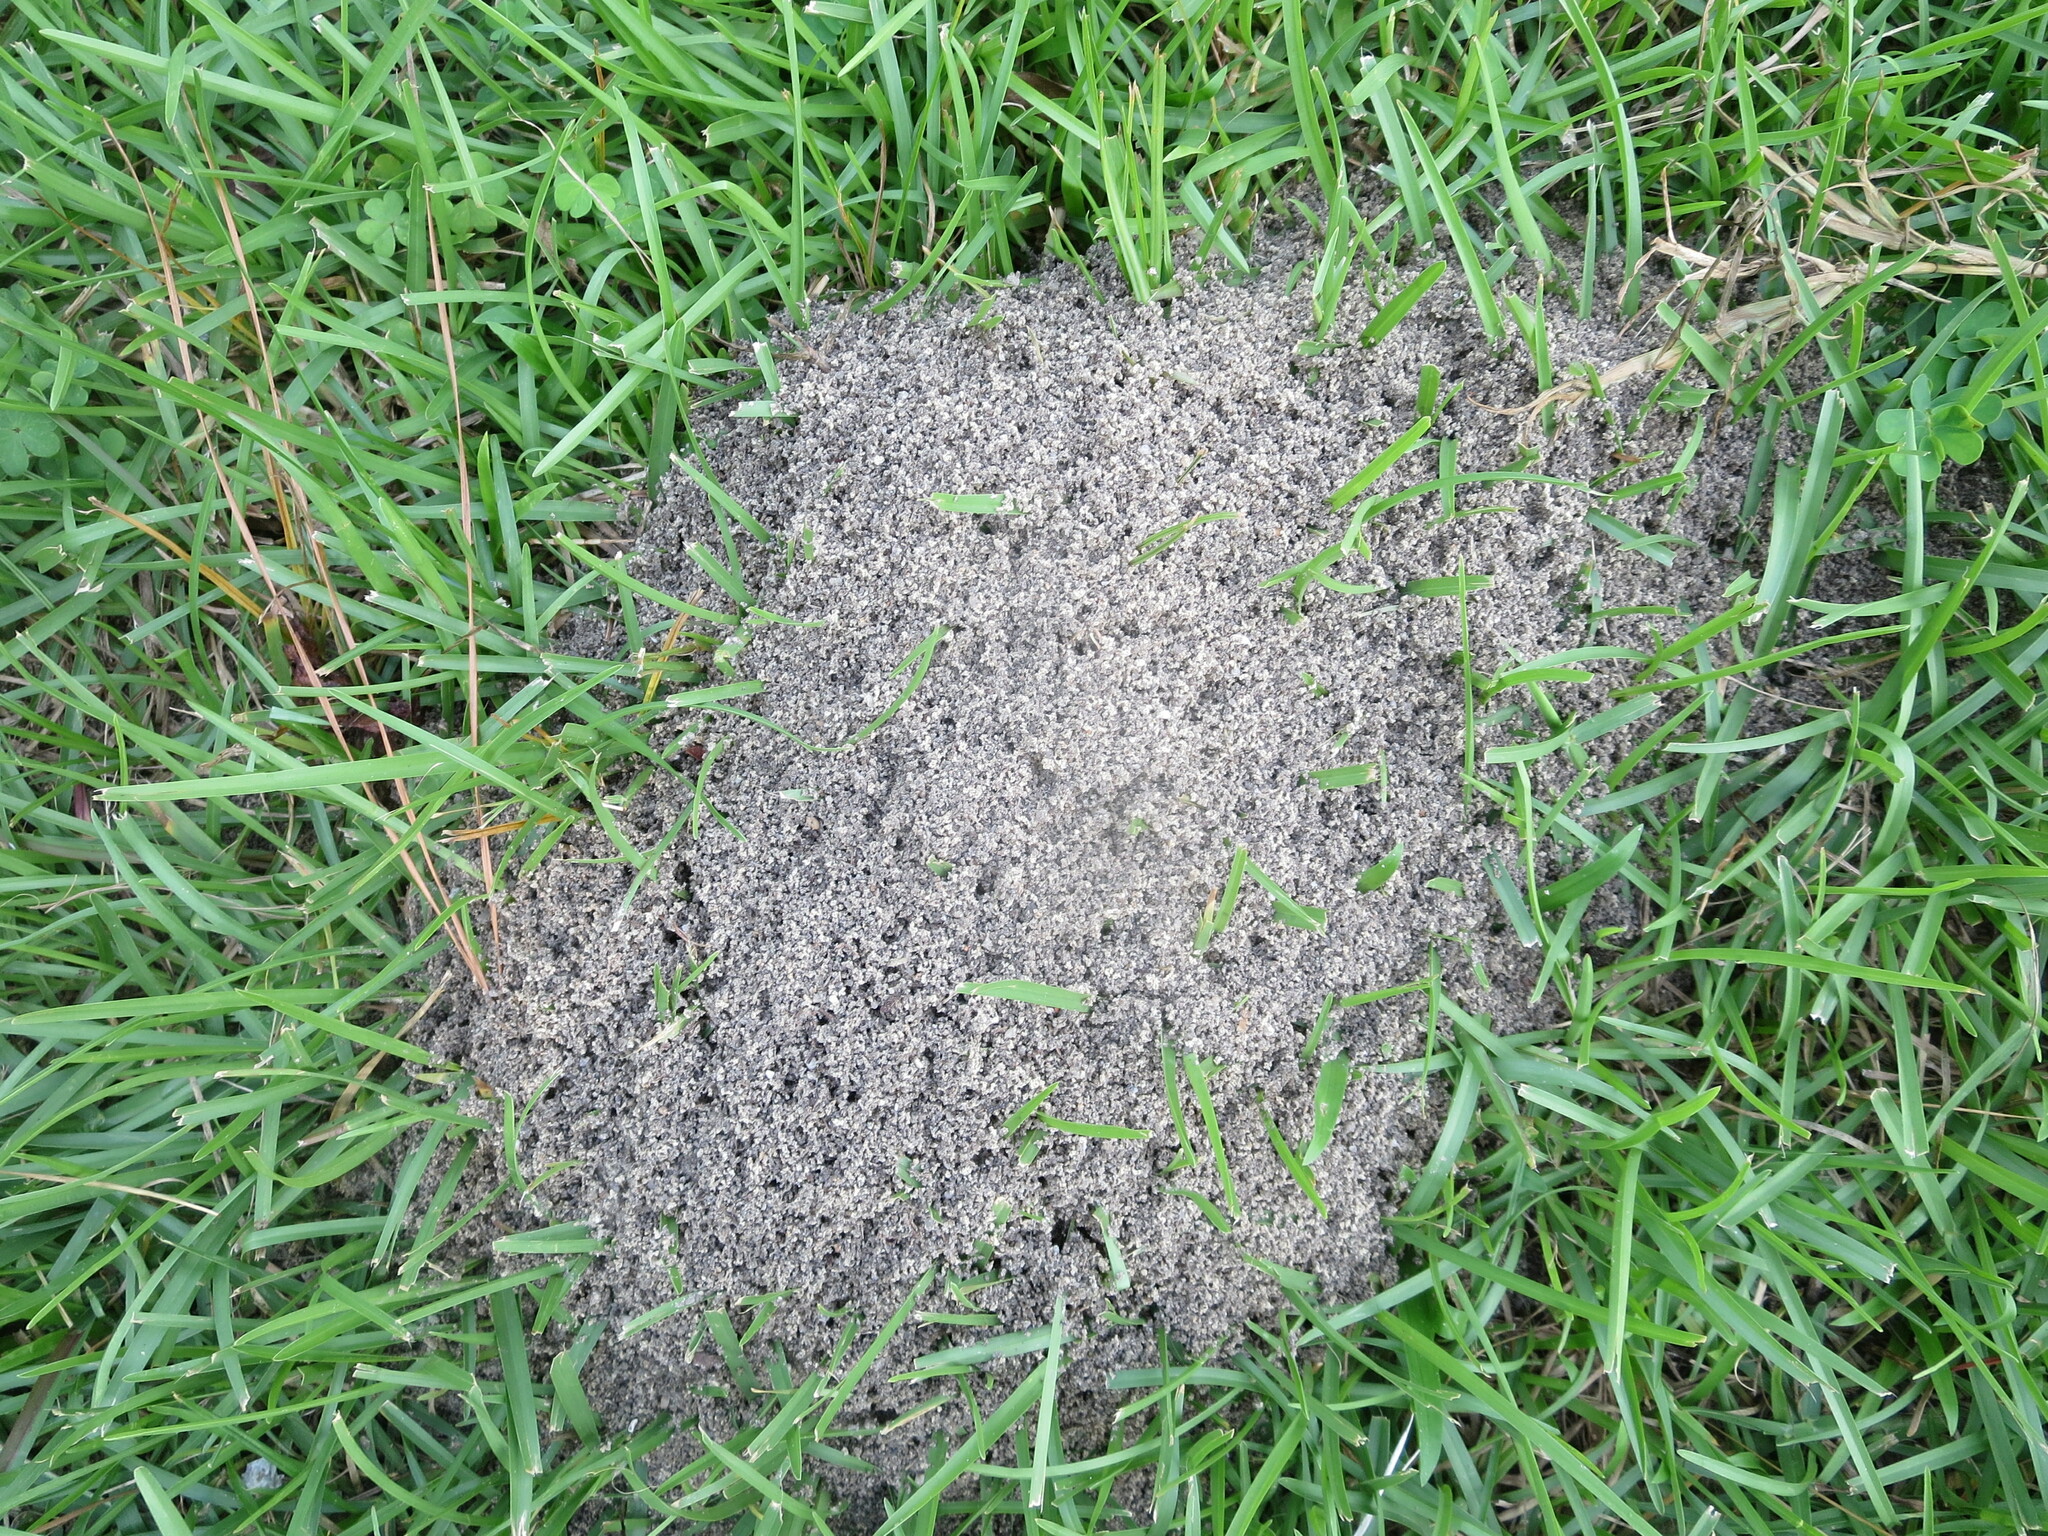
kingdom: Animalia
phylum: Arthropoda
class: Insecta
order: Hymenoptera
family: Formicidae
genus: Solenopsis
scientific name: Solenopsis invicta
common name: Red imported fire ant
